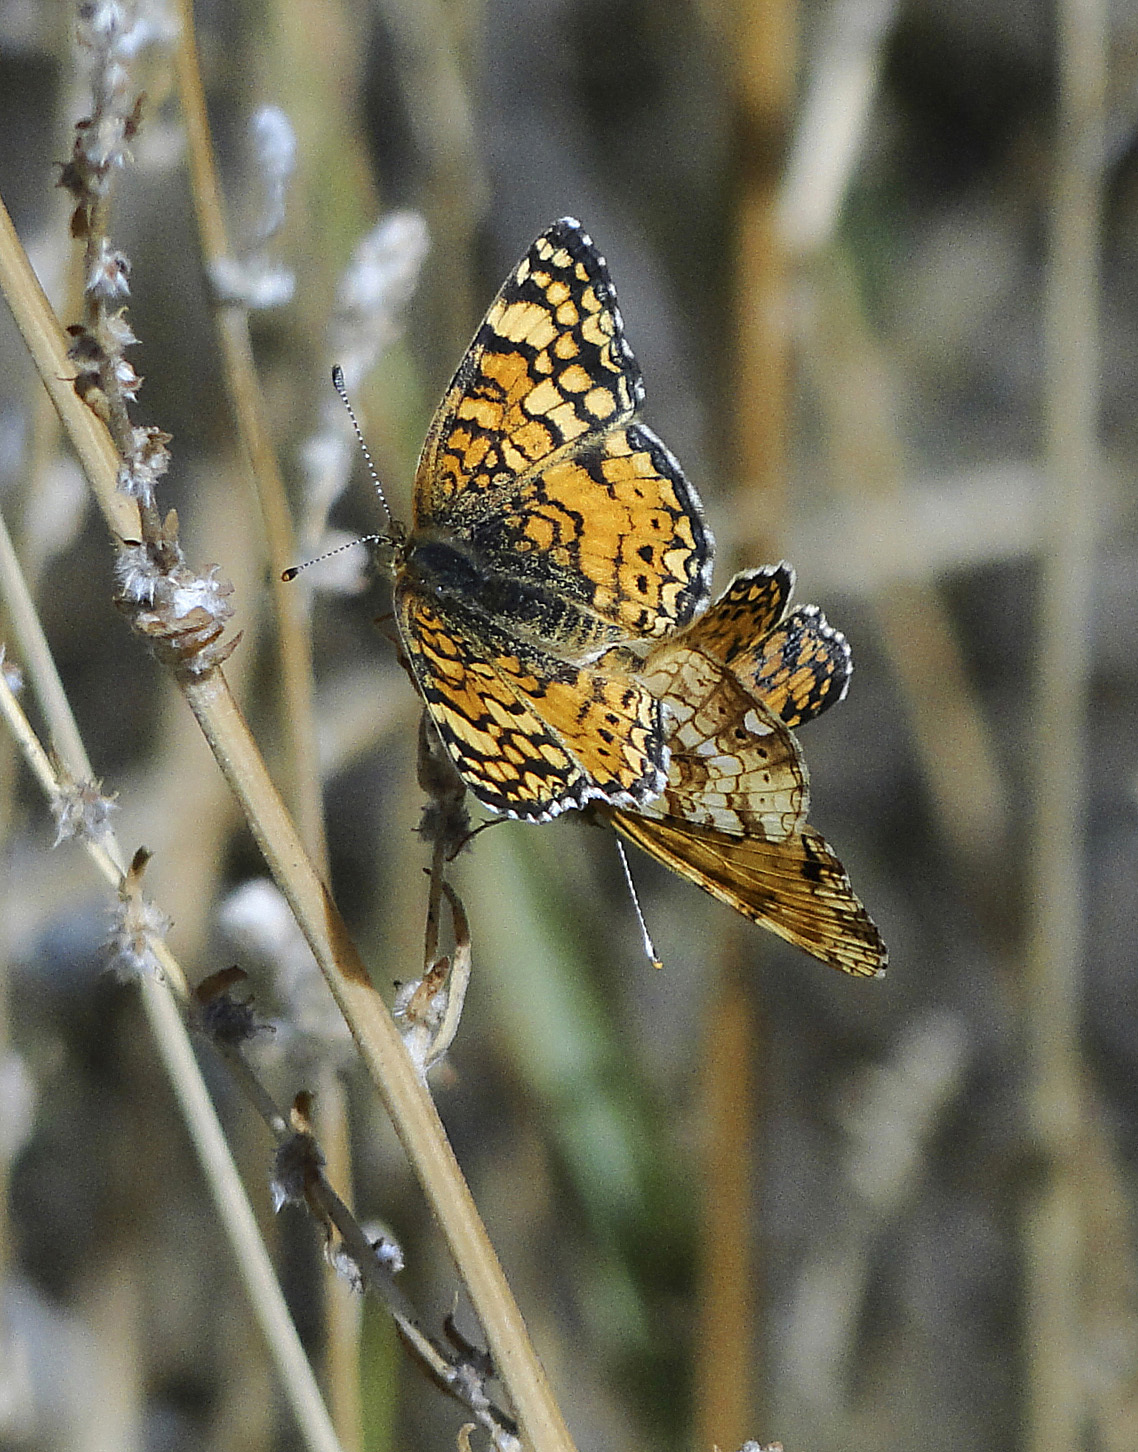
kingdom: Animalia
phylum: Arthropoda
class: Insecta
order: Lepidoptera
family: Nymphalidae
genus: Eresia
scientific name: Eresia aveyrona
